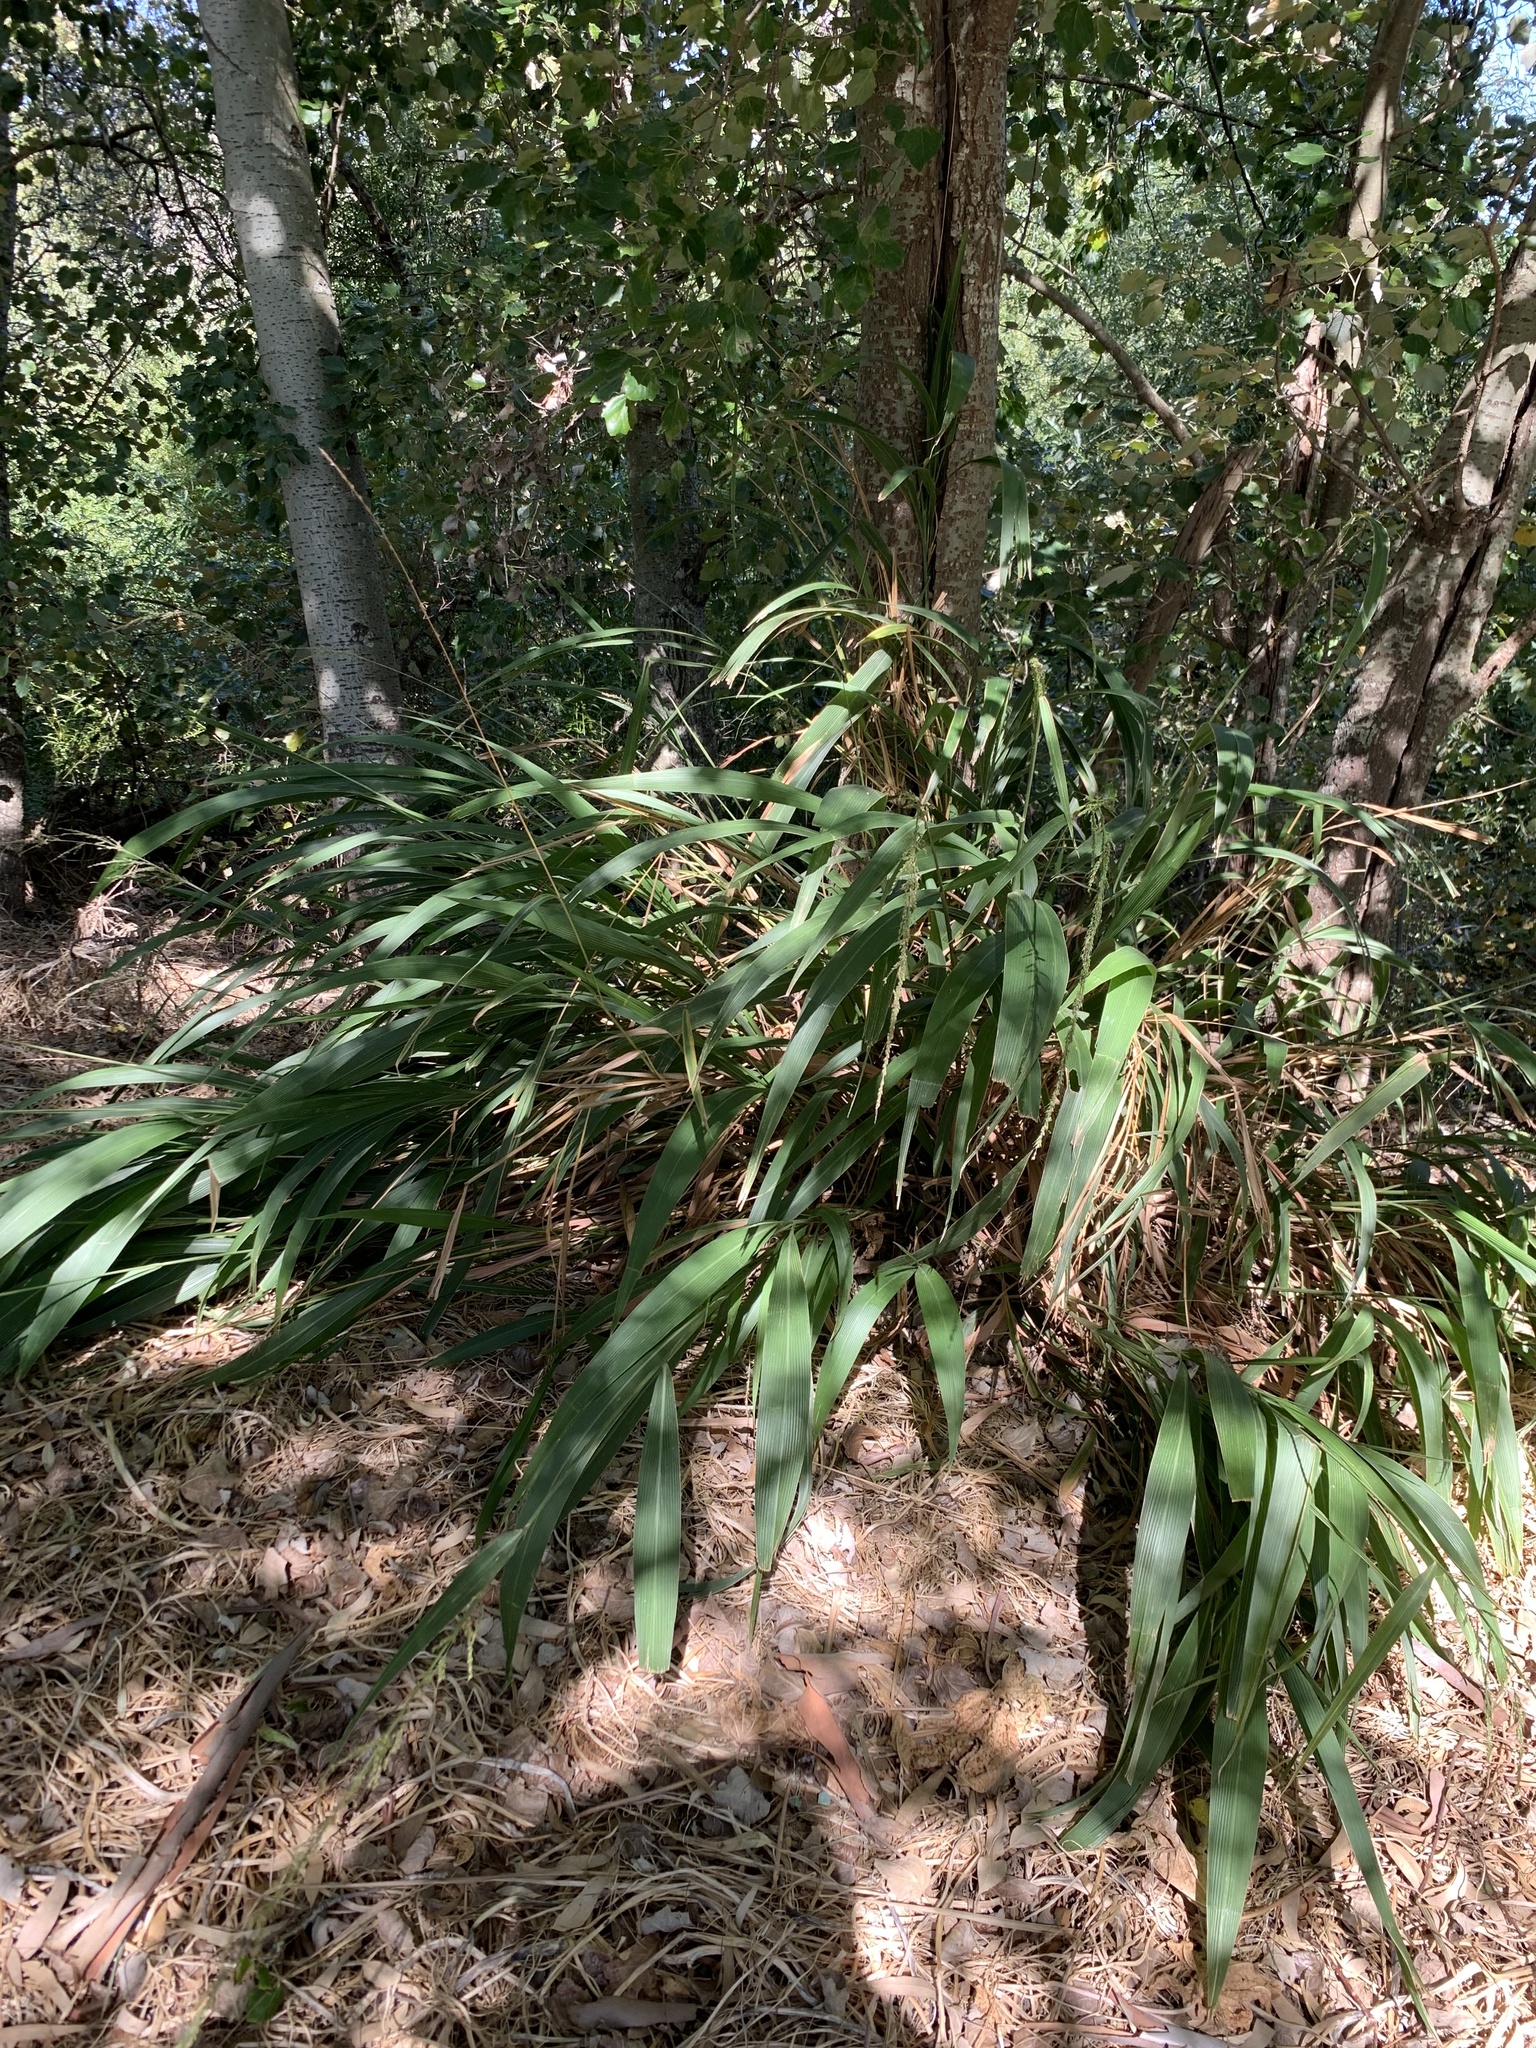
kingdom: Plantae
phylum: Tracheophyta
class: Liliopsida
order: Poales
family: Poaceae
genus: Setaria
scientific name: Setaria megaphylla
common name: Bigleaf bristlegrass
